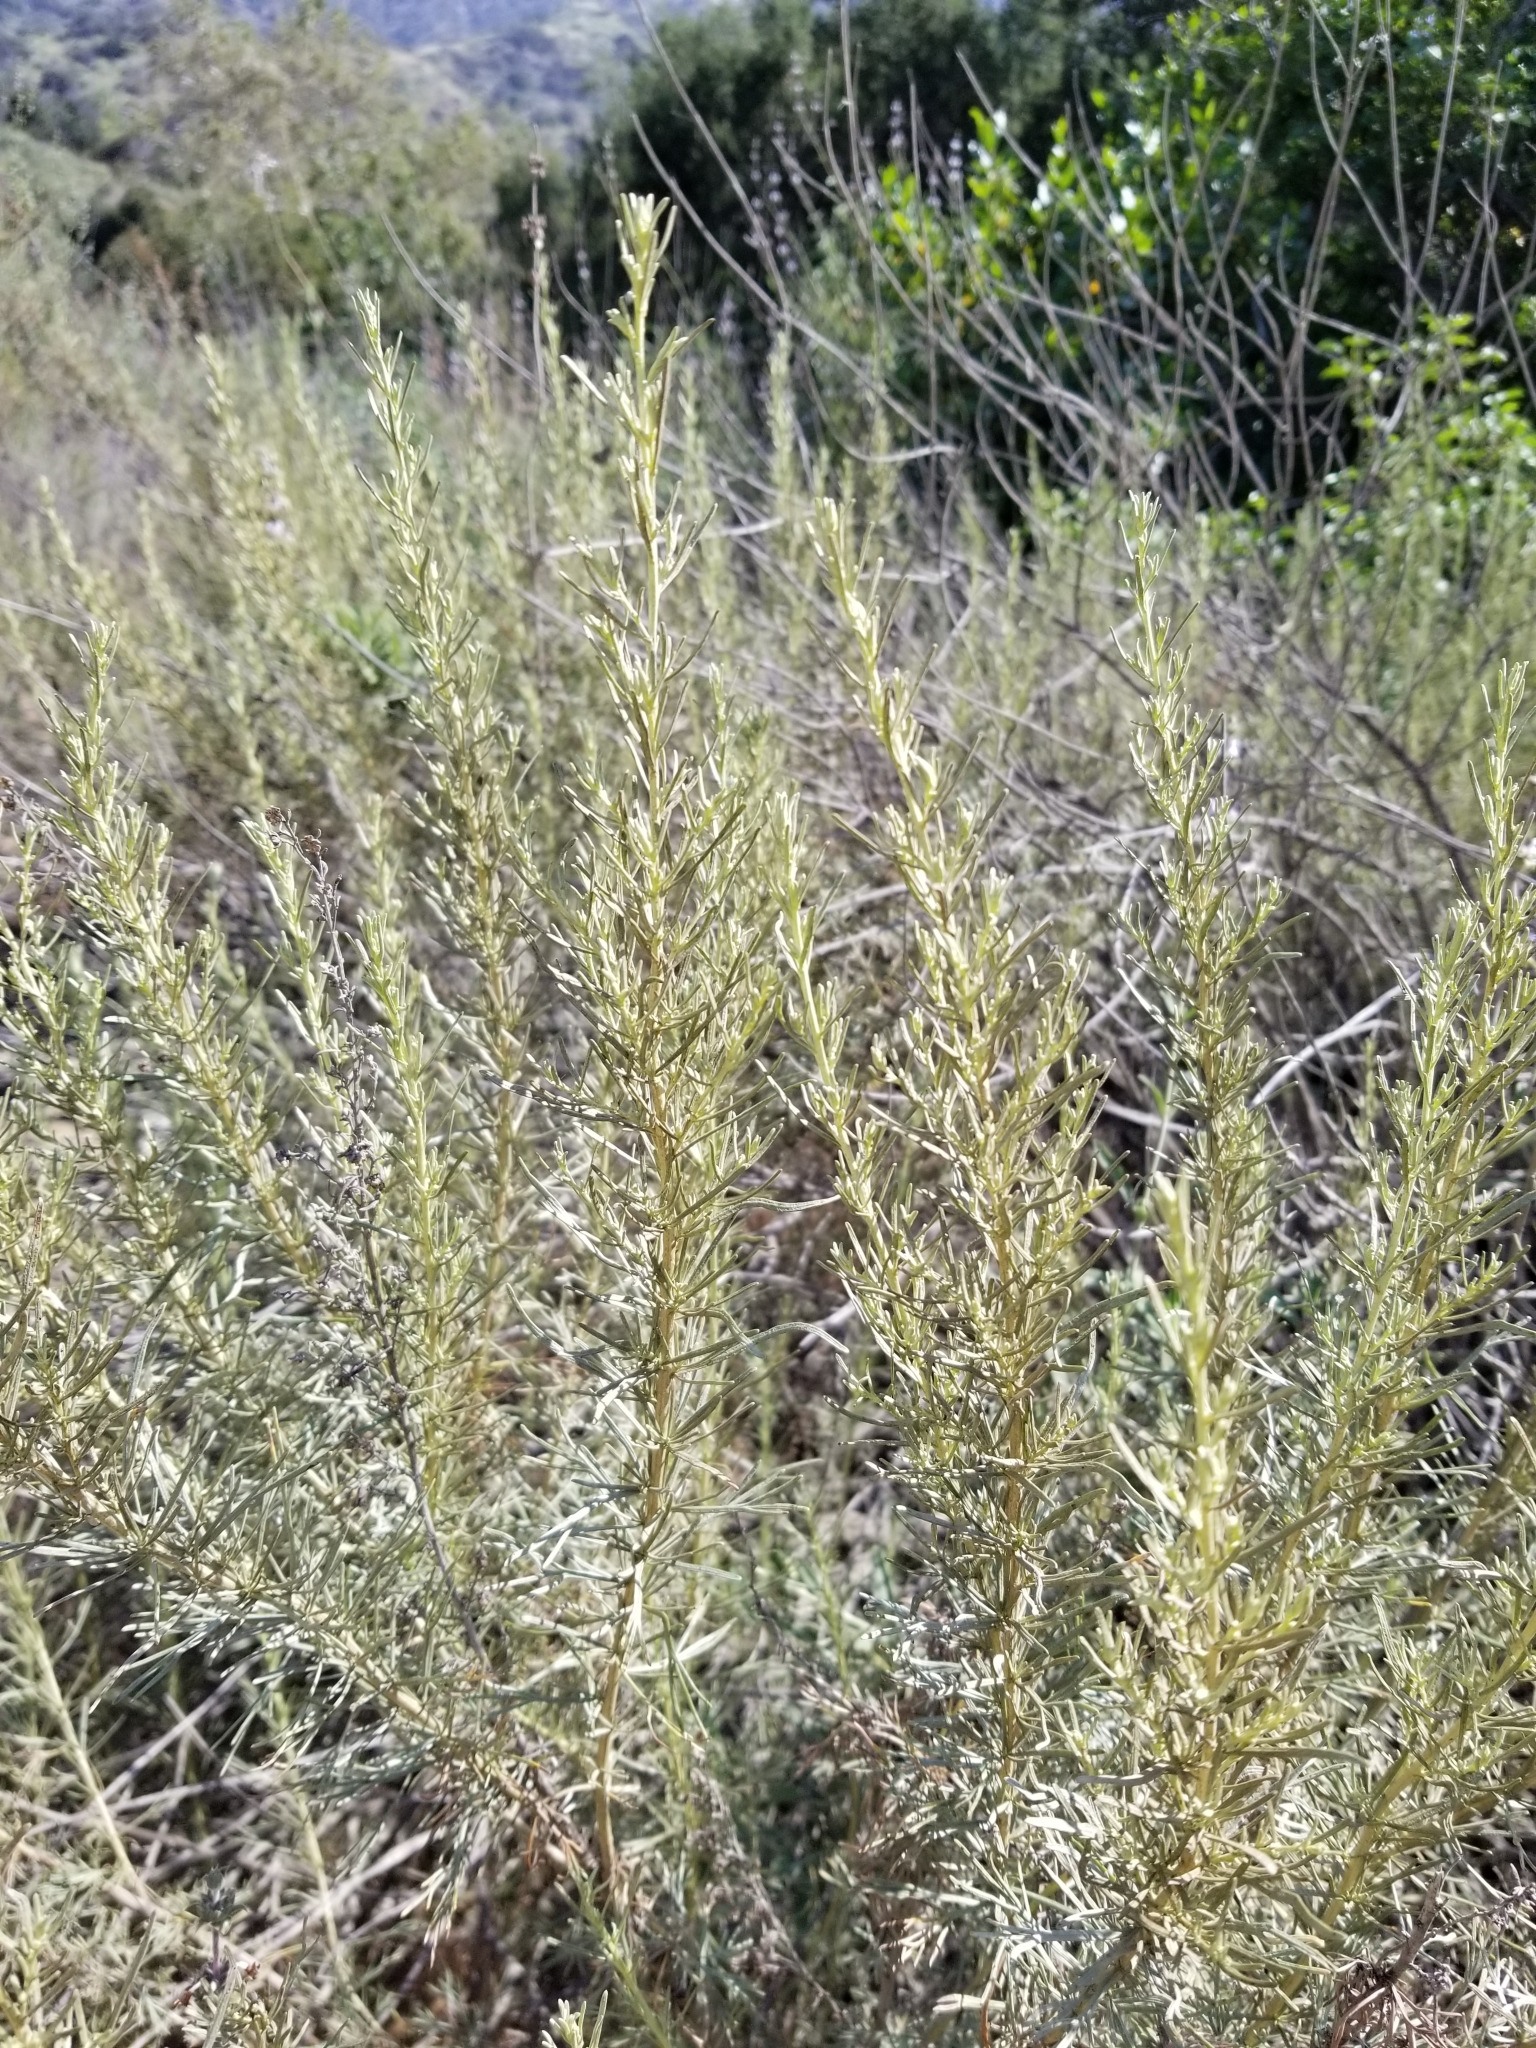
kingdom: Plantae
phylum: Tracheophyta
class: Magnoliopsida
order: Asterales
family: Asteraceae
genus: Artemisia
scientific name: Artemisia californica
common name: California sagebrush
